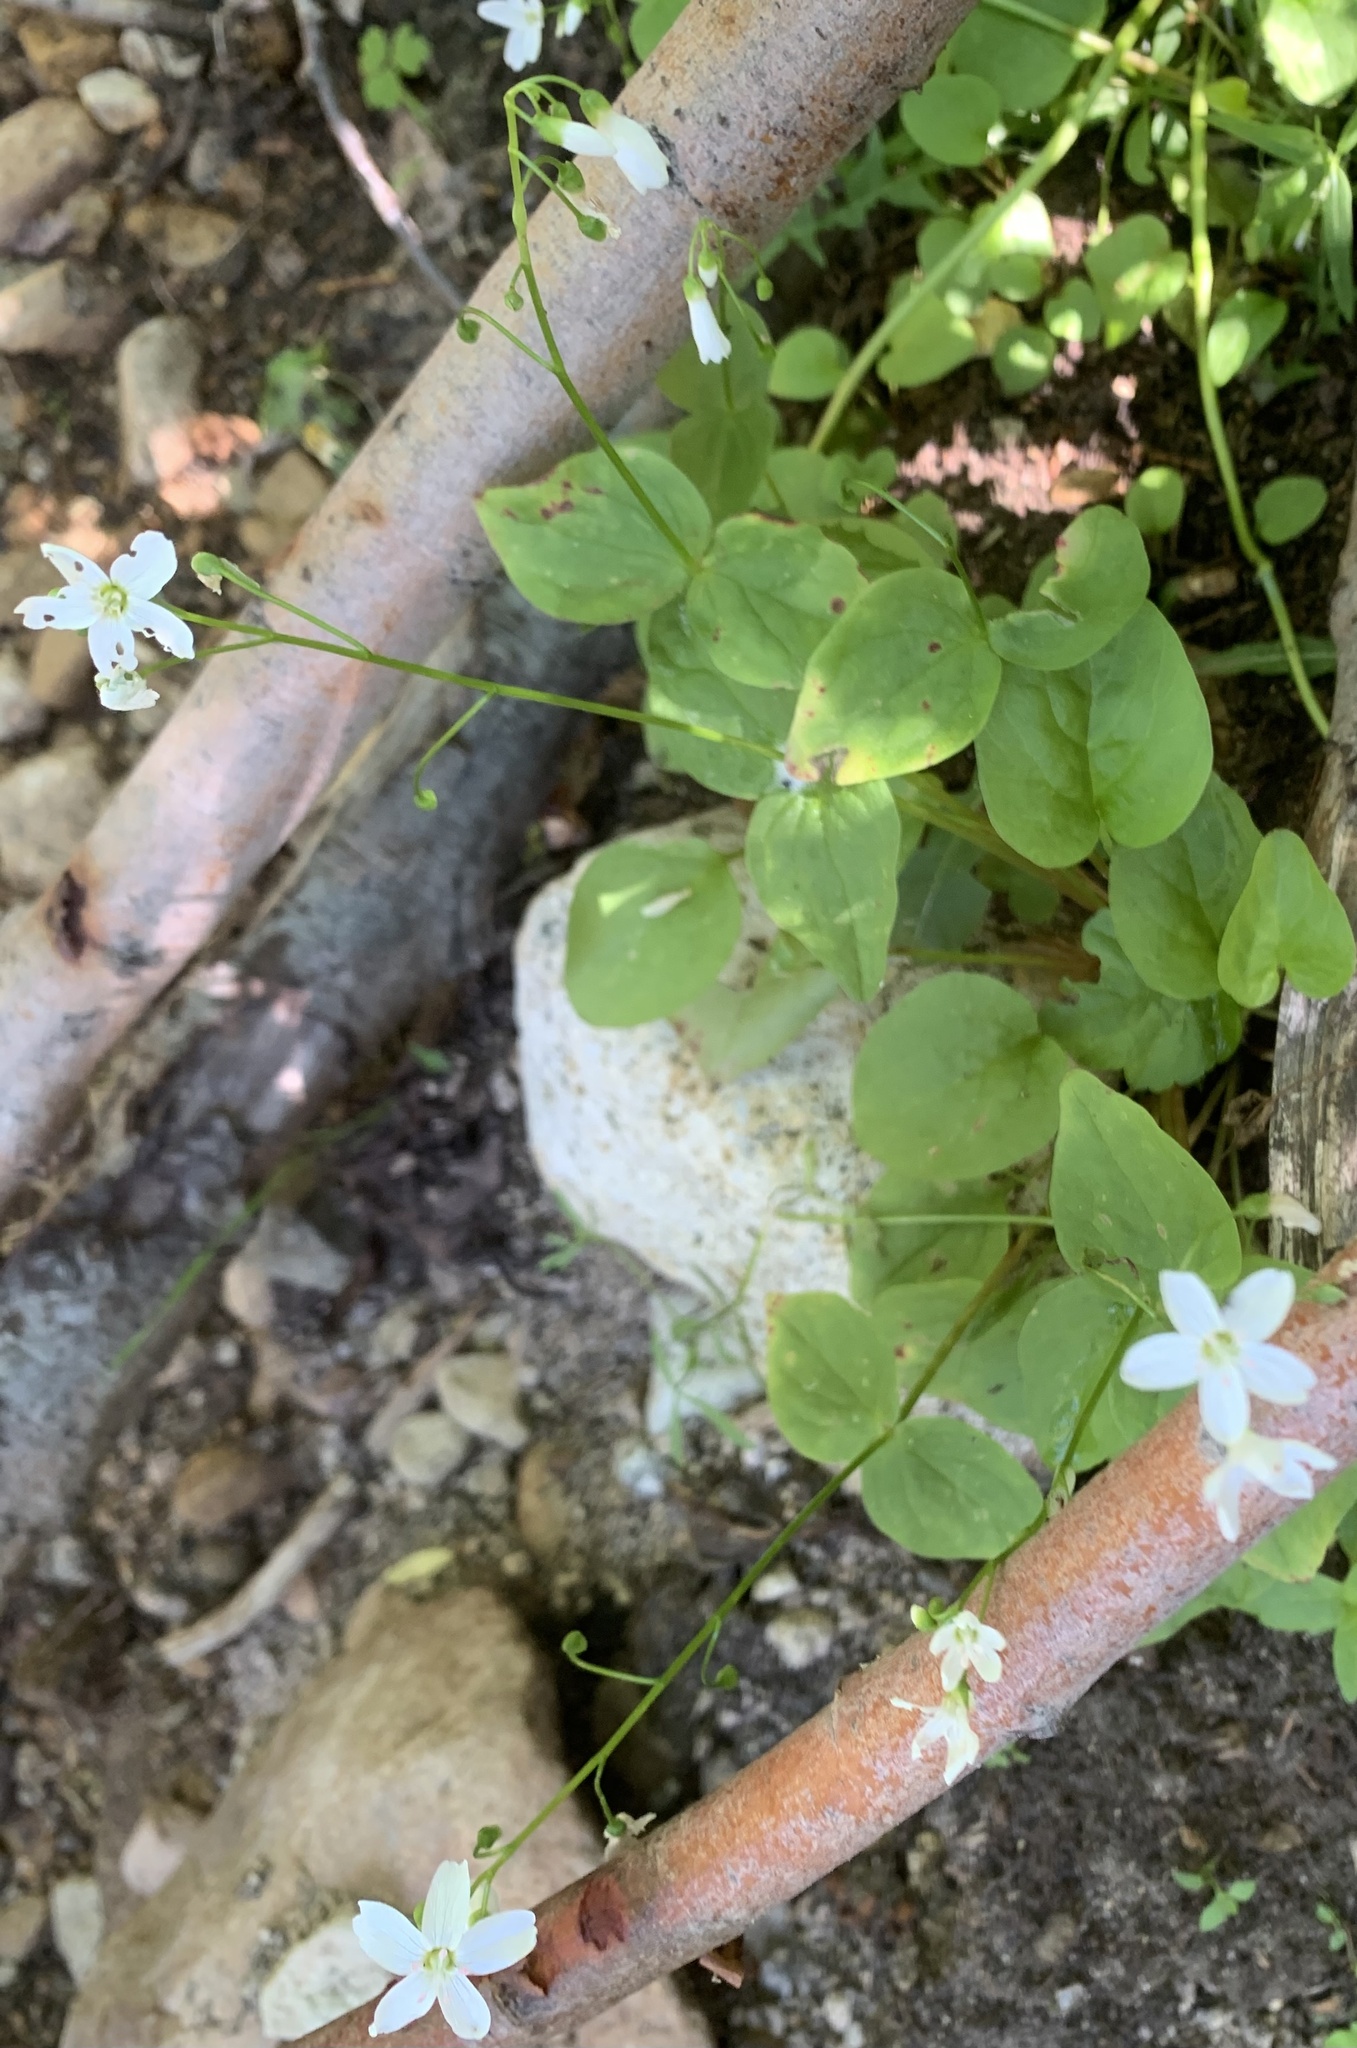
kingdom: Plantae
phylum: Tracheophyta
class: Magnoliopsida
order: Caryophyllales
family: Montiaceae
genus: Claytonia
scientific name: Claytonia cordifolia
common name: Broad-leaved spring beauty
